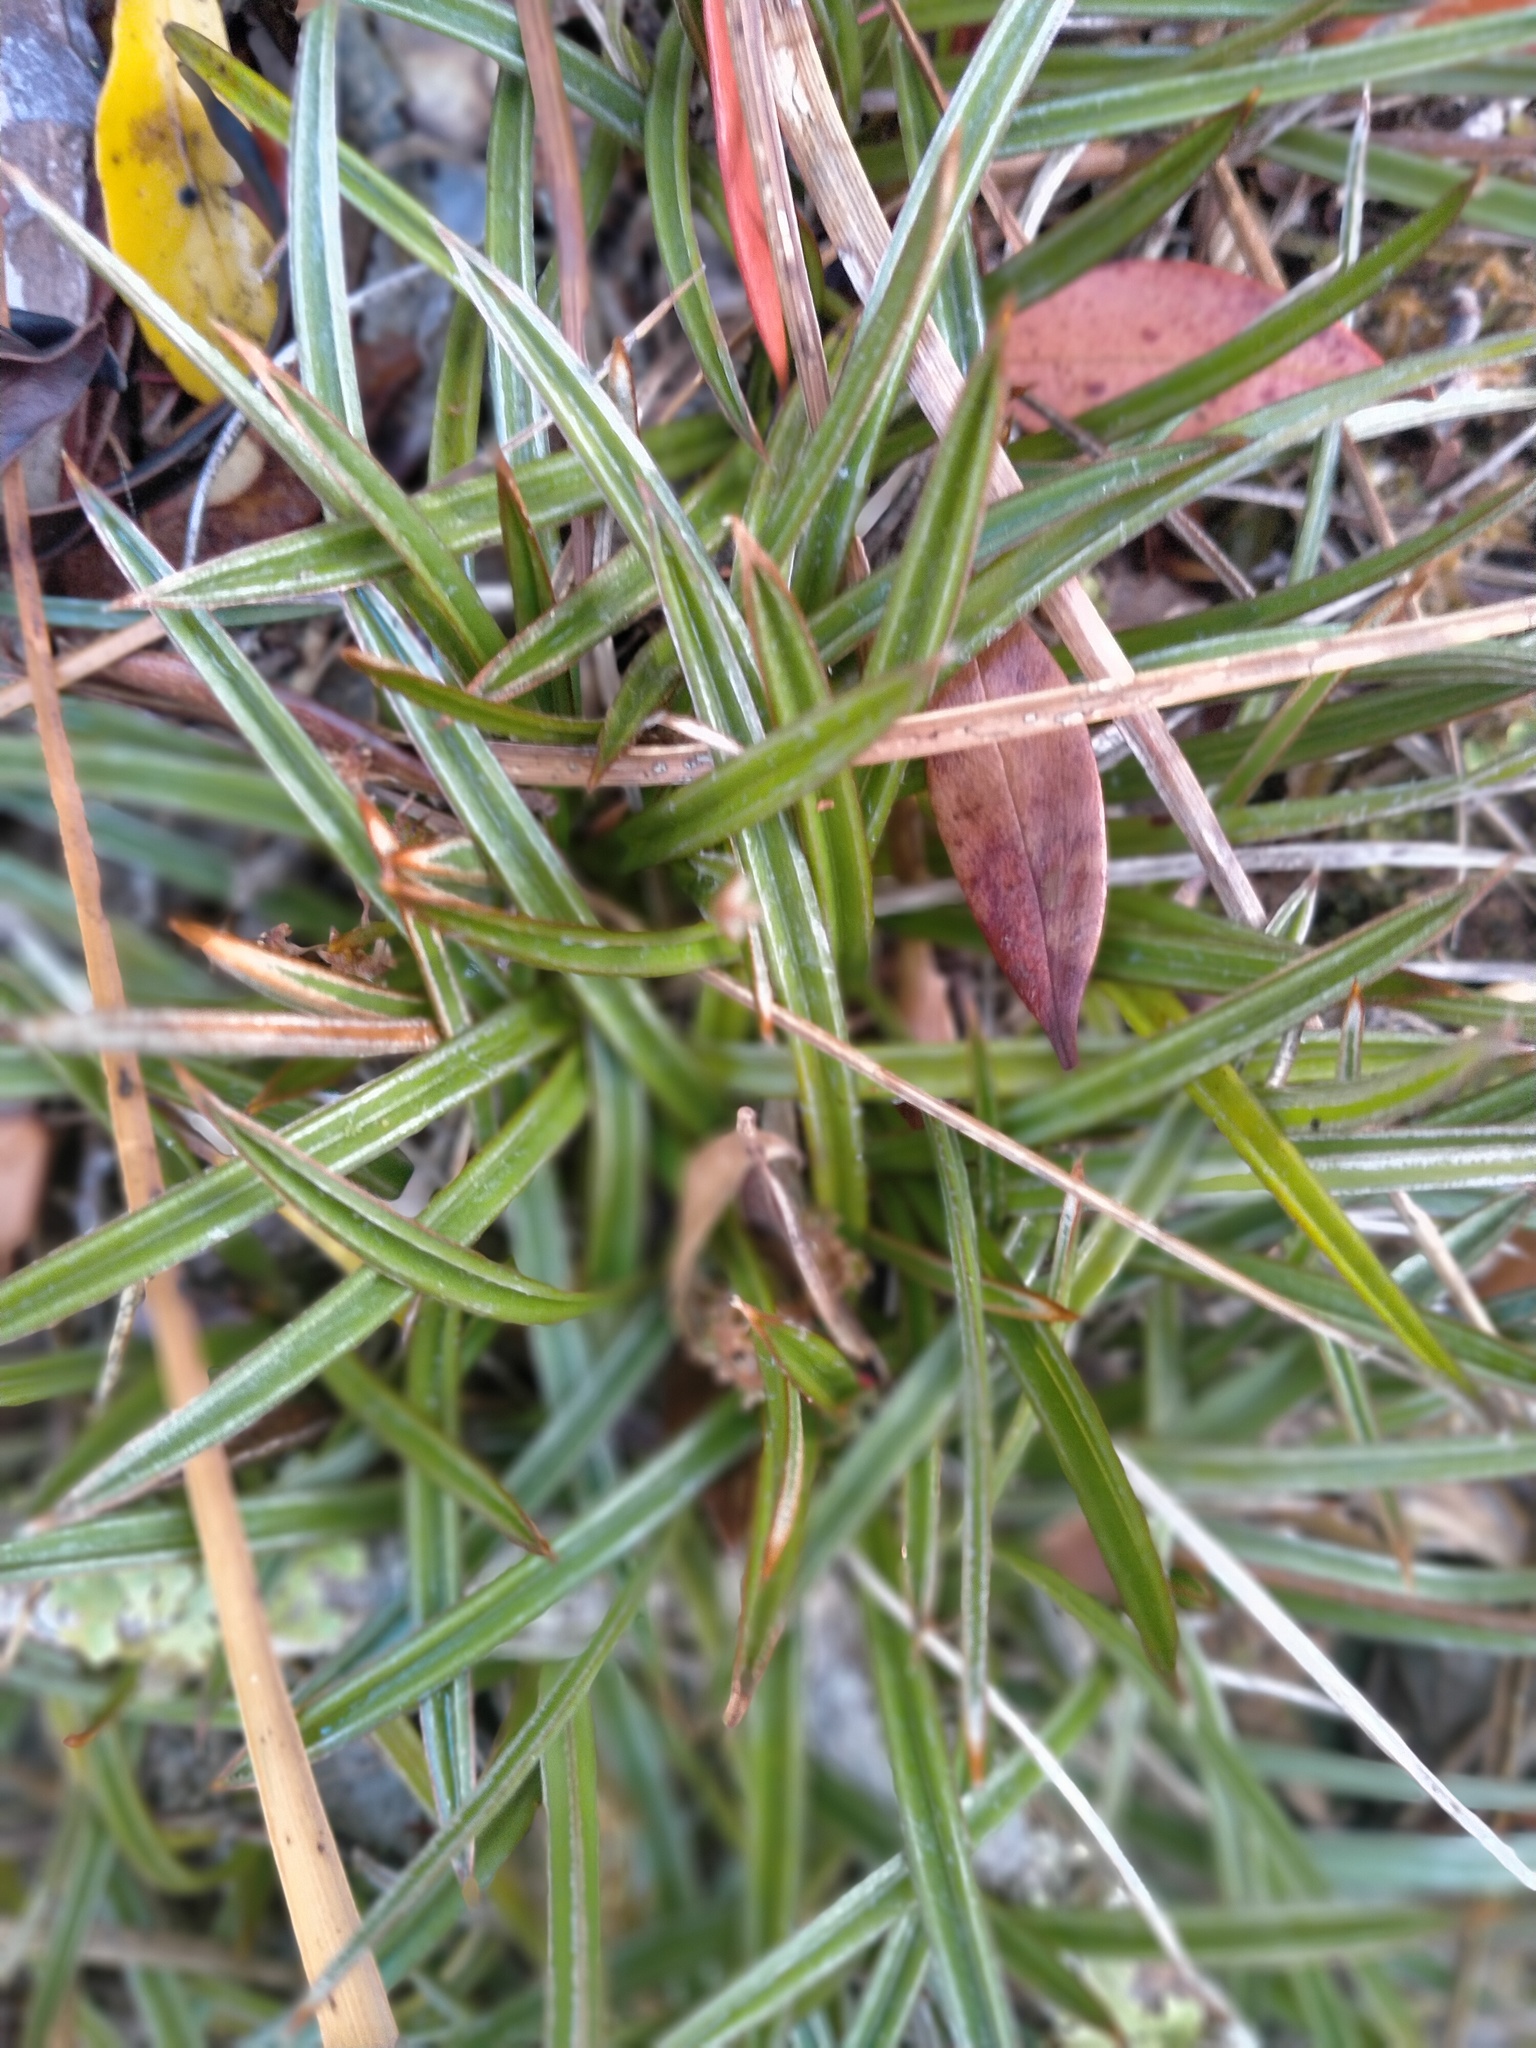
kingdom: Plantae
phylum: Tracheophyta
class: Liliopsida
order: Asparagales
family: Asteliaceae
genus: Astelia
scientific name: Astelia linearis
